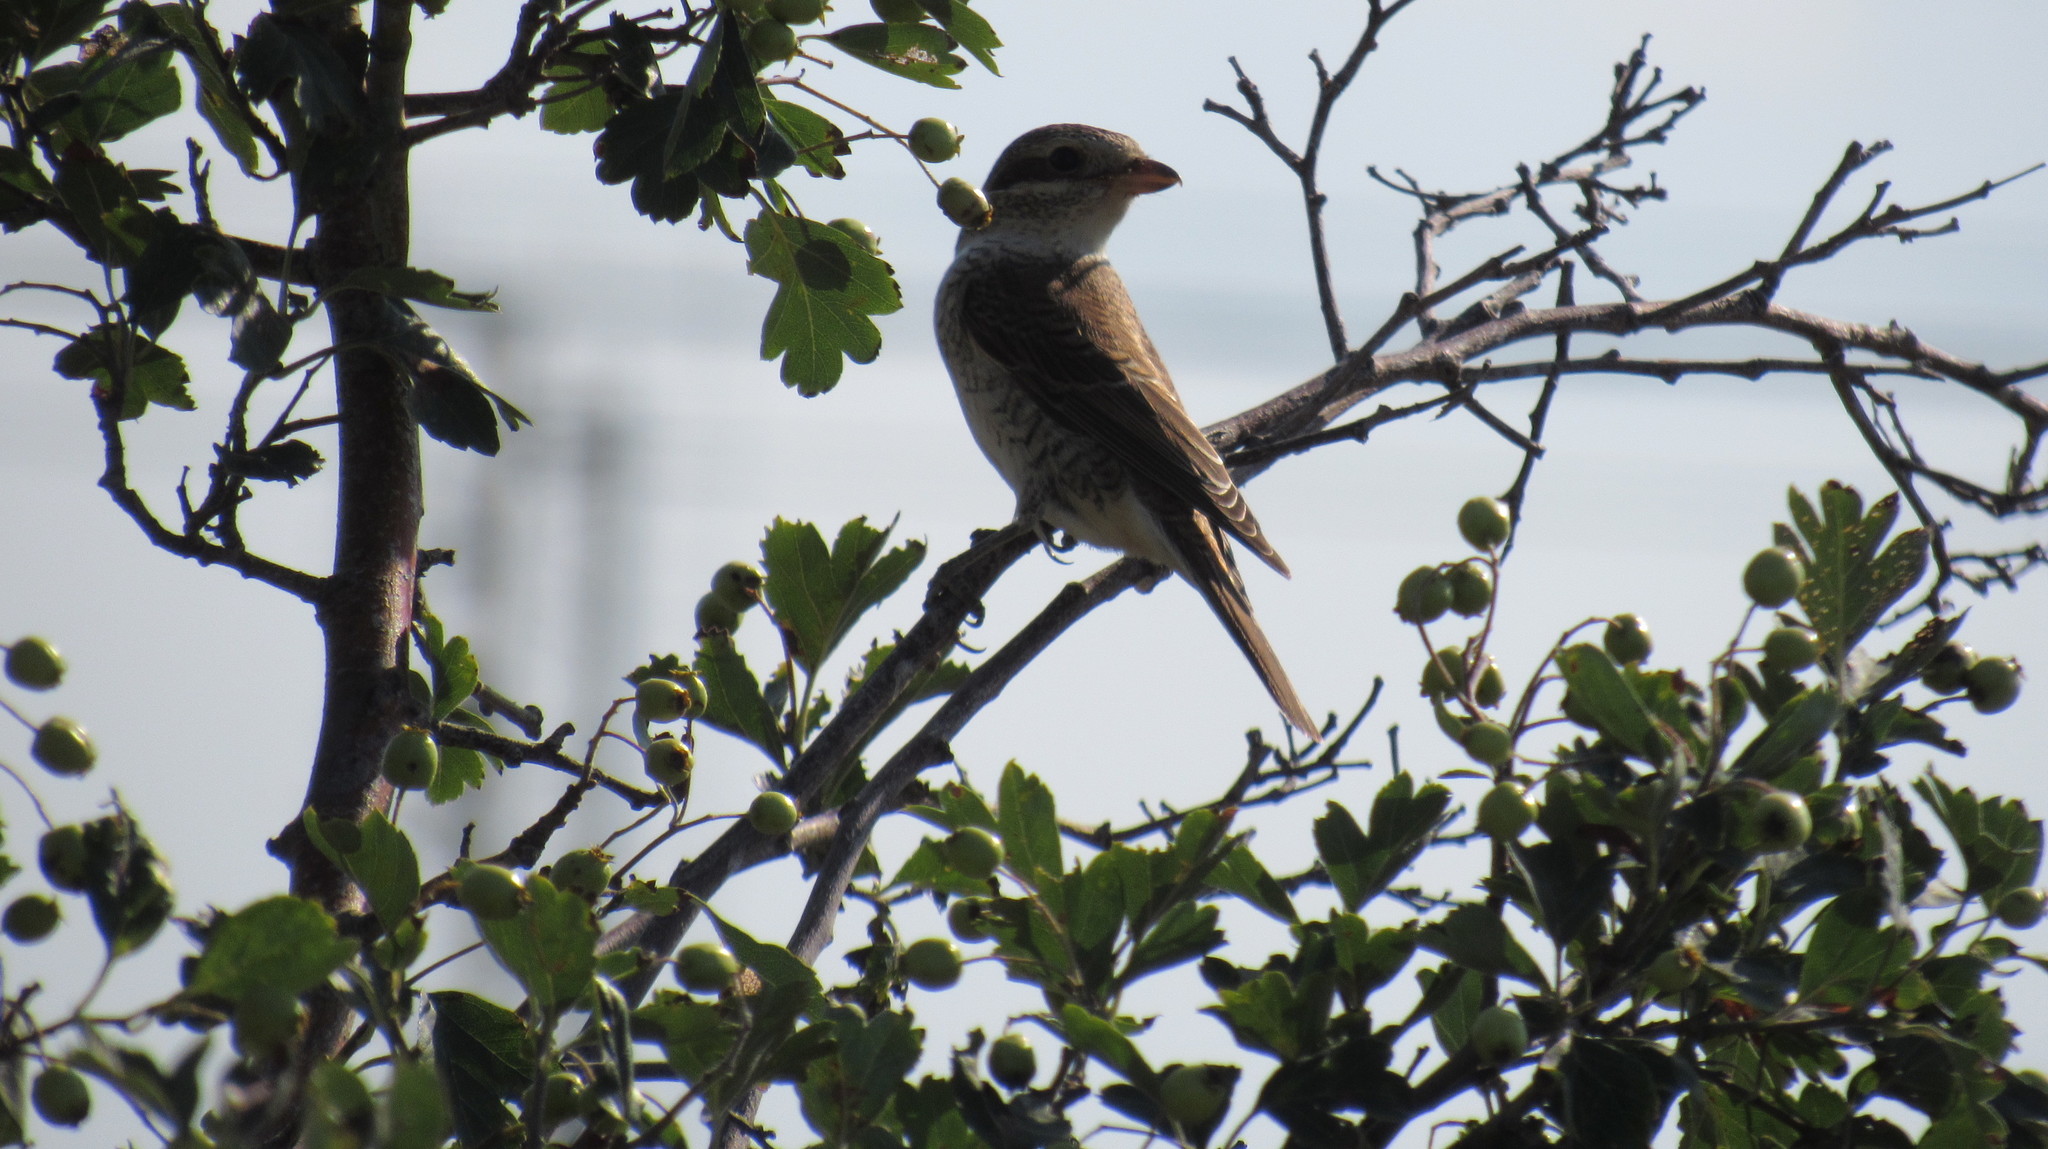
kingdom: Animalia
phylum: Chordata
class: Aves
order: Passeriformes
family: Laniidae
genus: Lanius
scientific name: Lanius collurio
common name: Red-backed shrike
